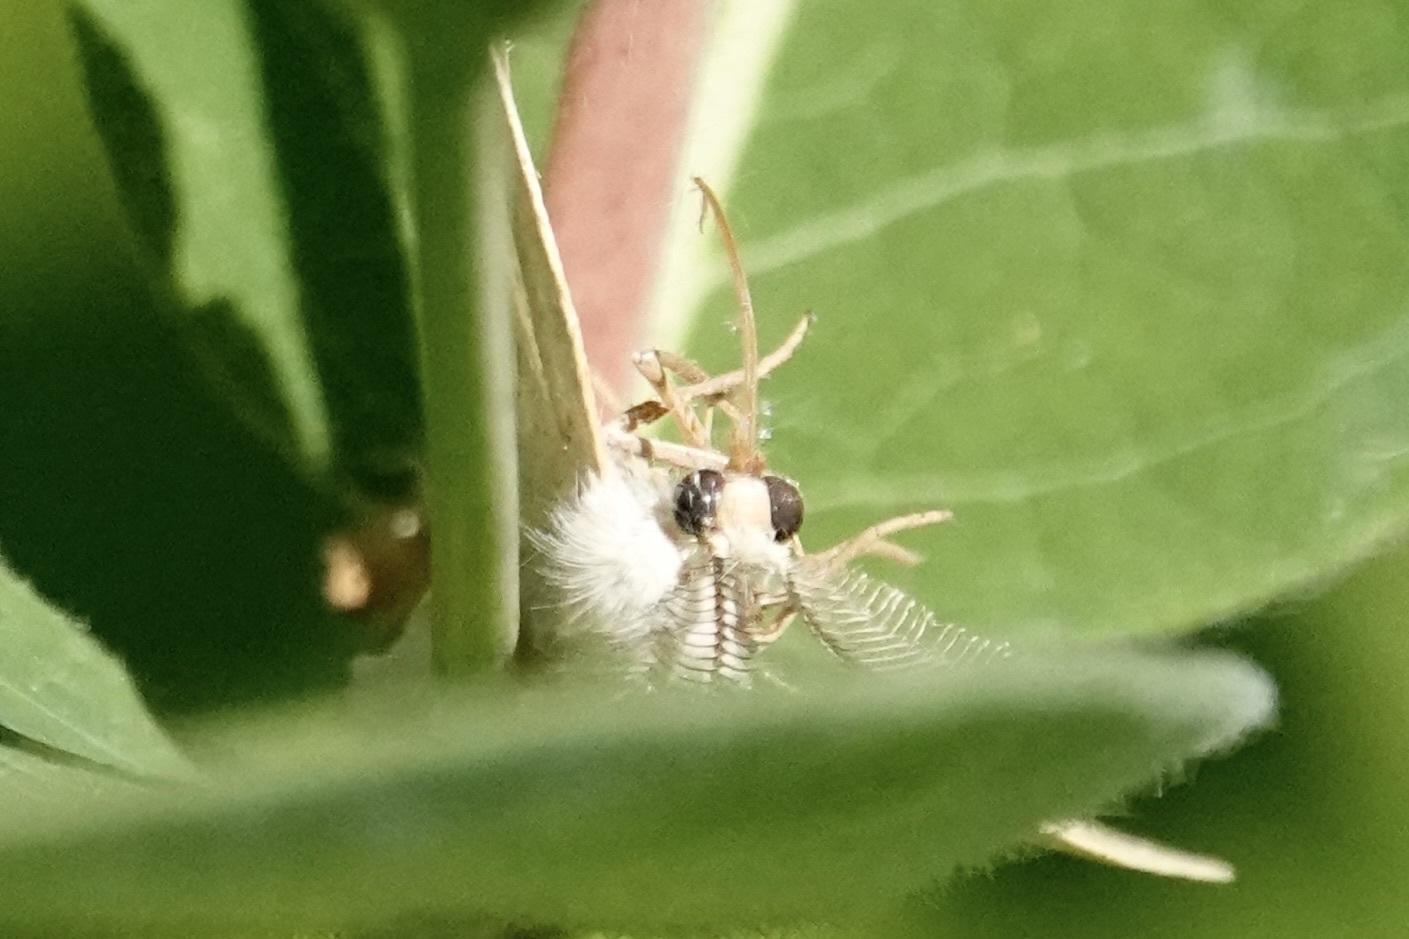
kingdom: Animalia
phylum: Arthropoda
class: Insecta
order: Lepidoptera
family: Geometridae
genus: Eusarca
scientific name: Eusarca confusaria
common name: Confused eusarca
